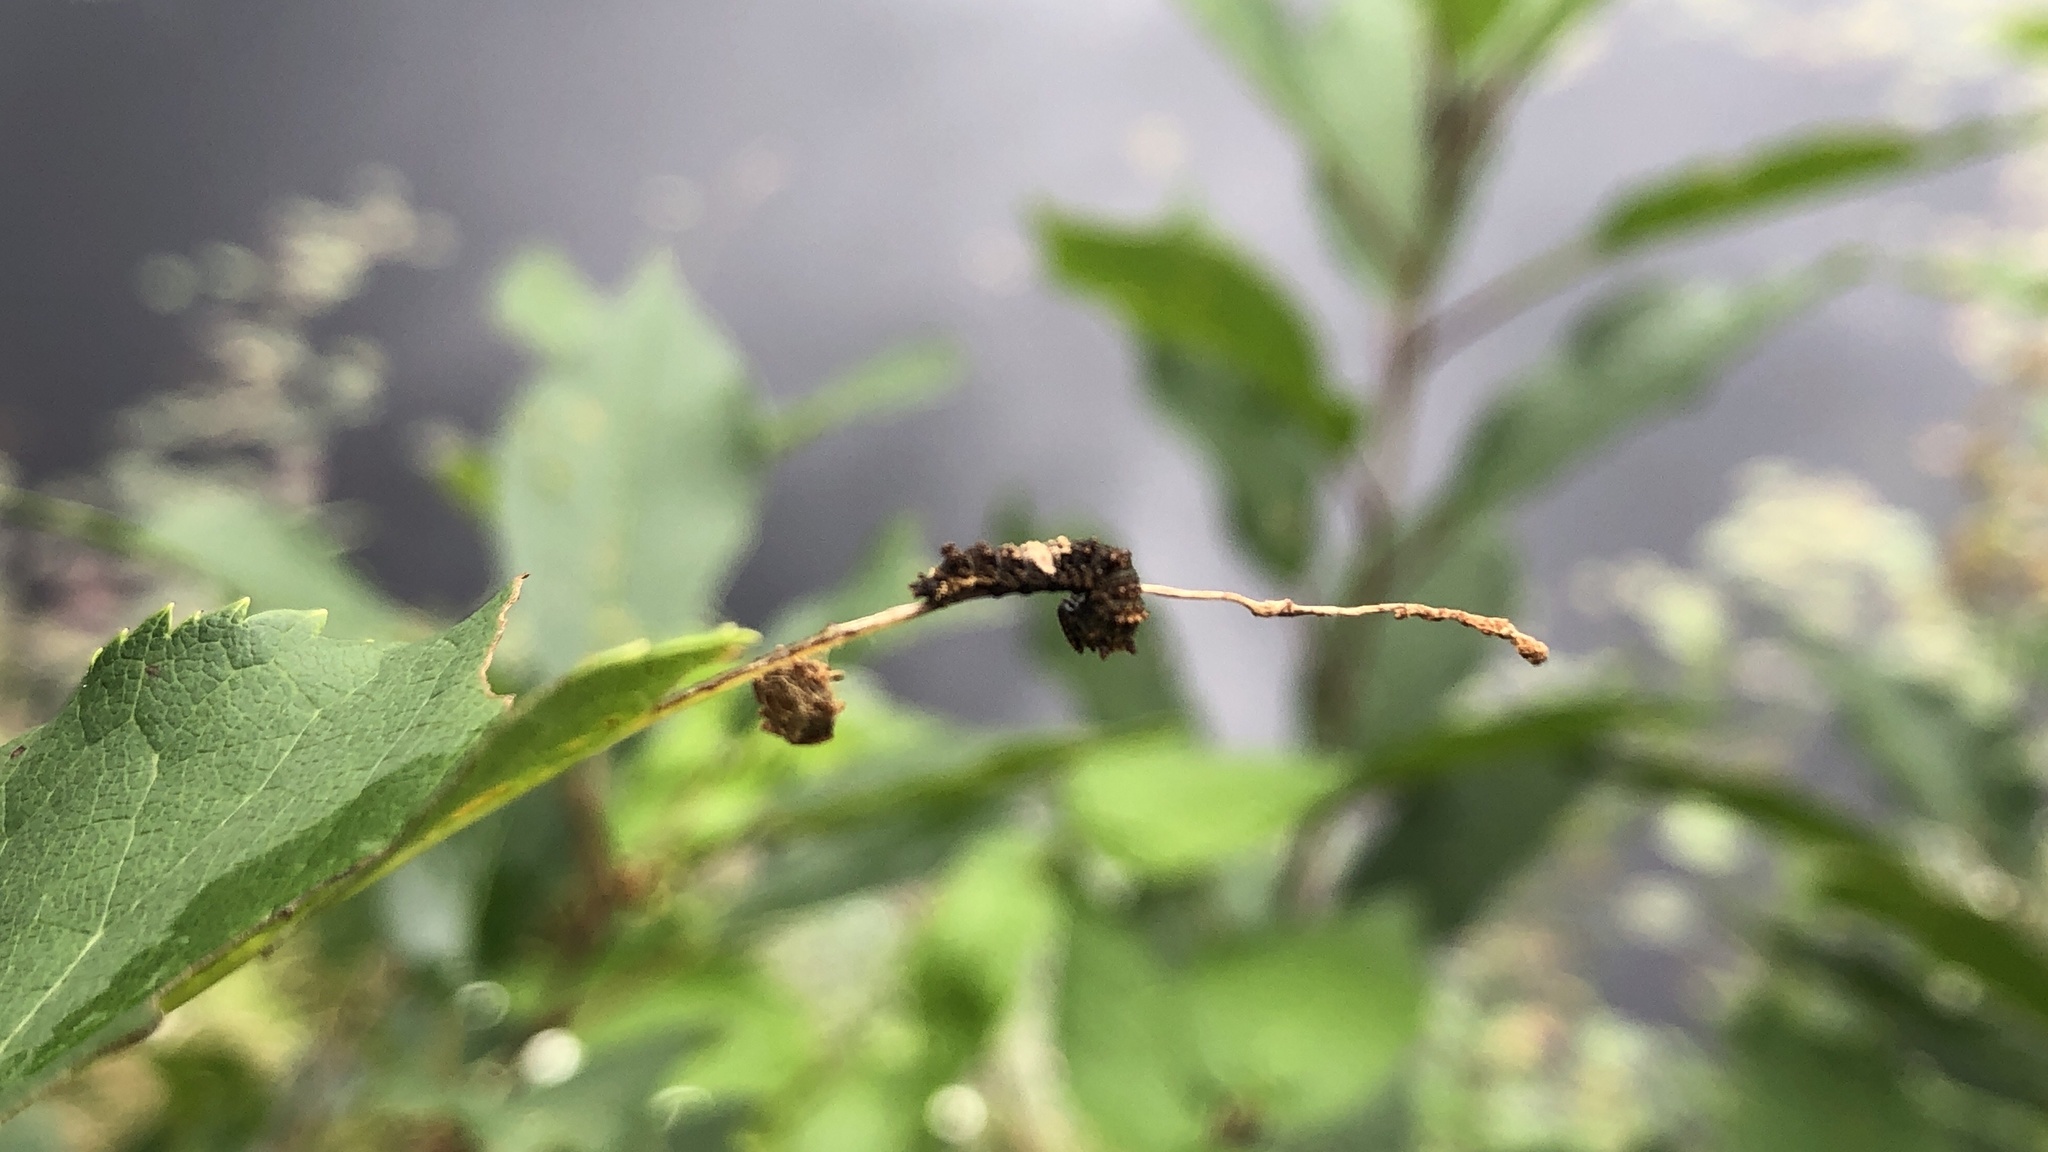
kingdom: Animalia
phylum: Arthropoda
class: Insecta
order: Lepidoptera
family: Nymphalidae
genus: Limenitis
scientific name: Limenitis
